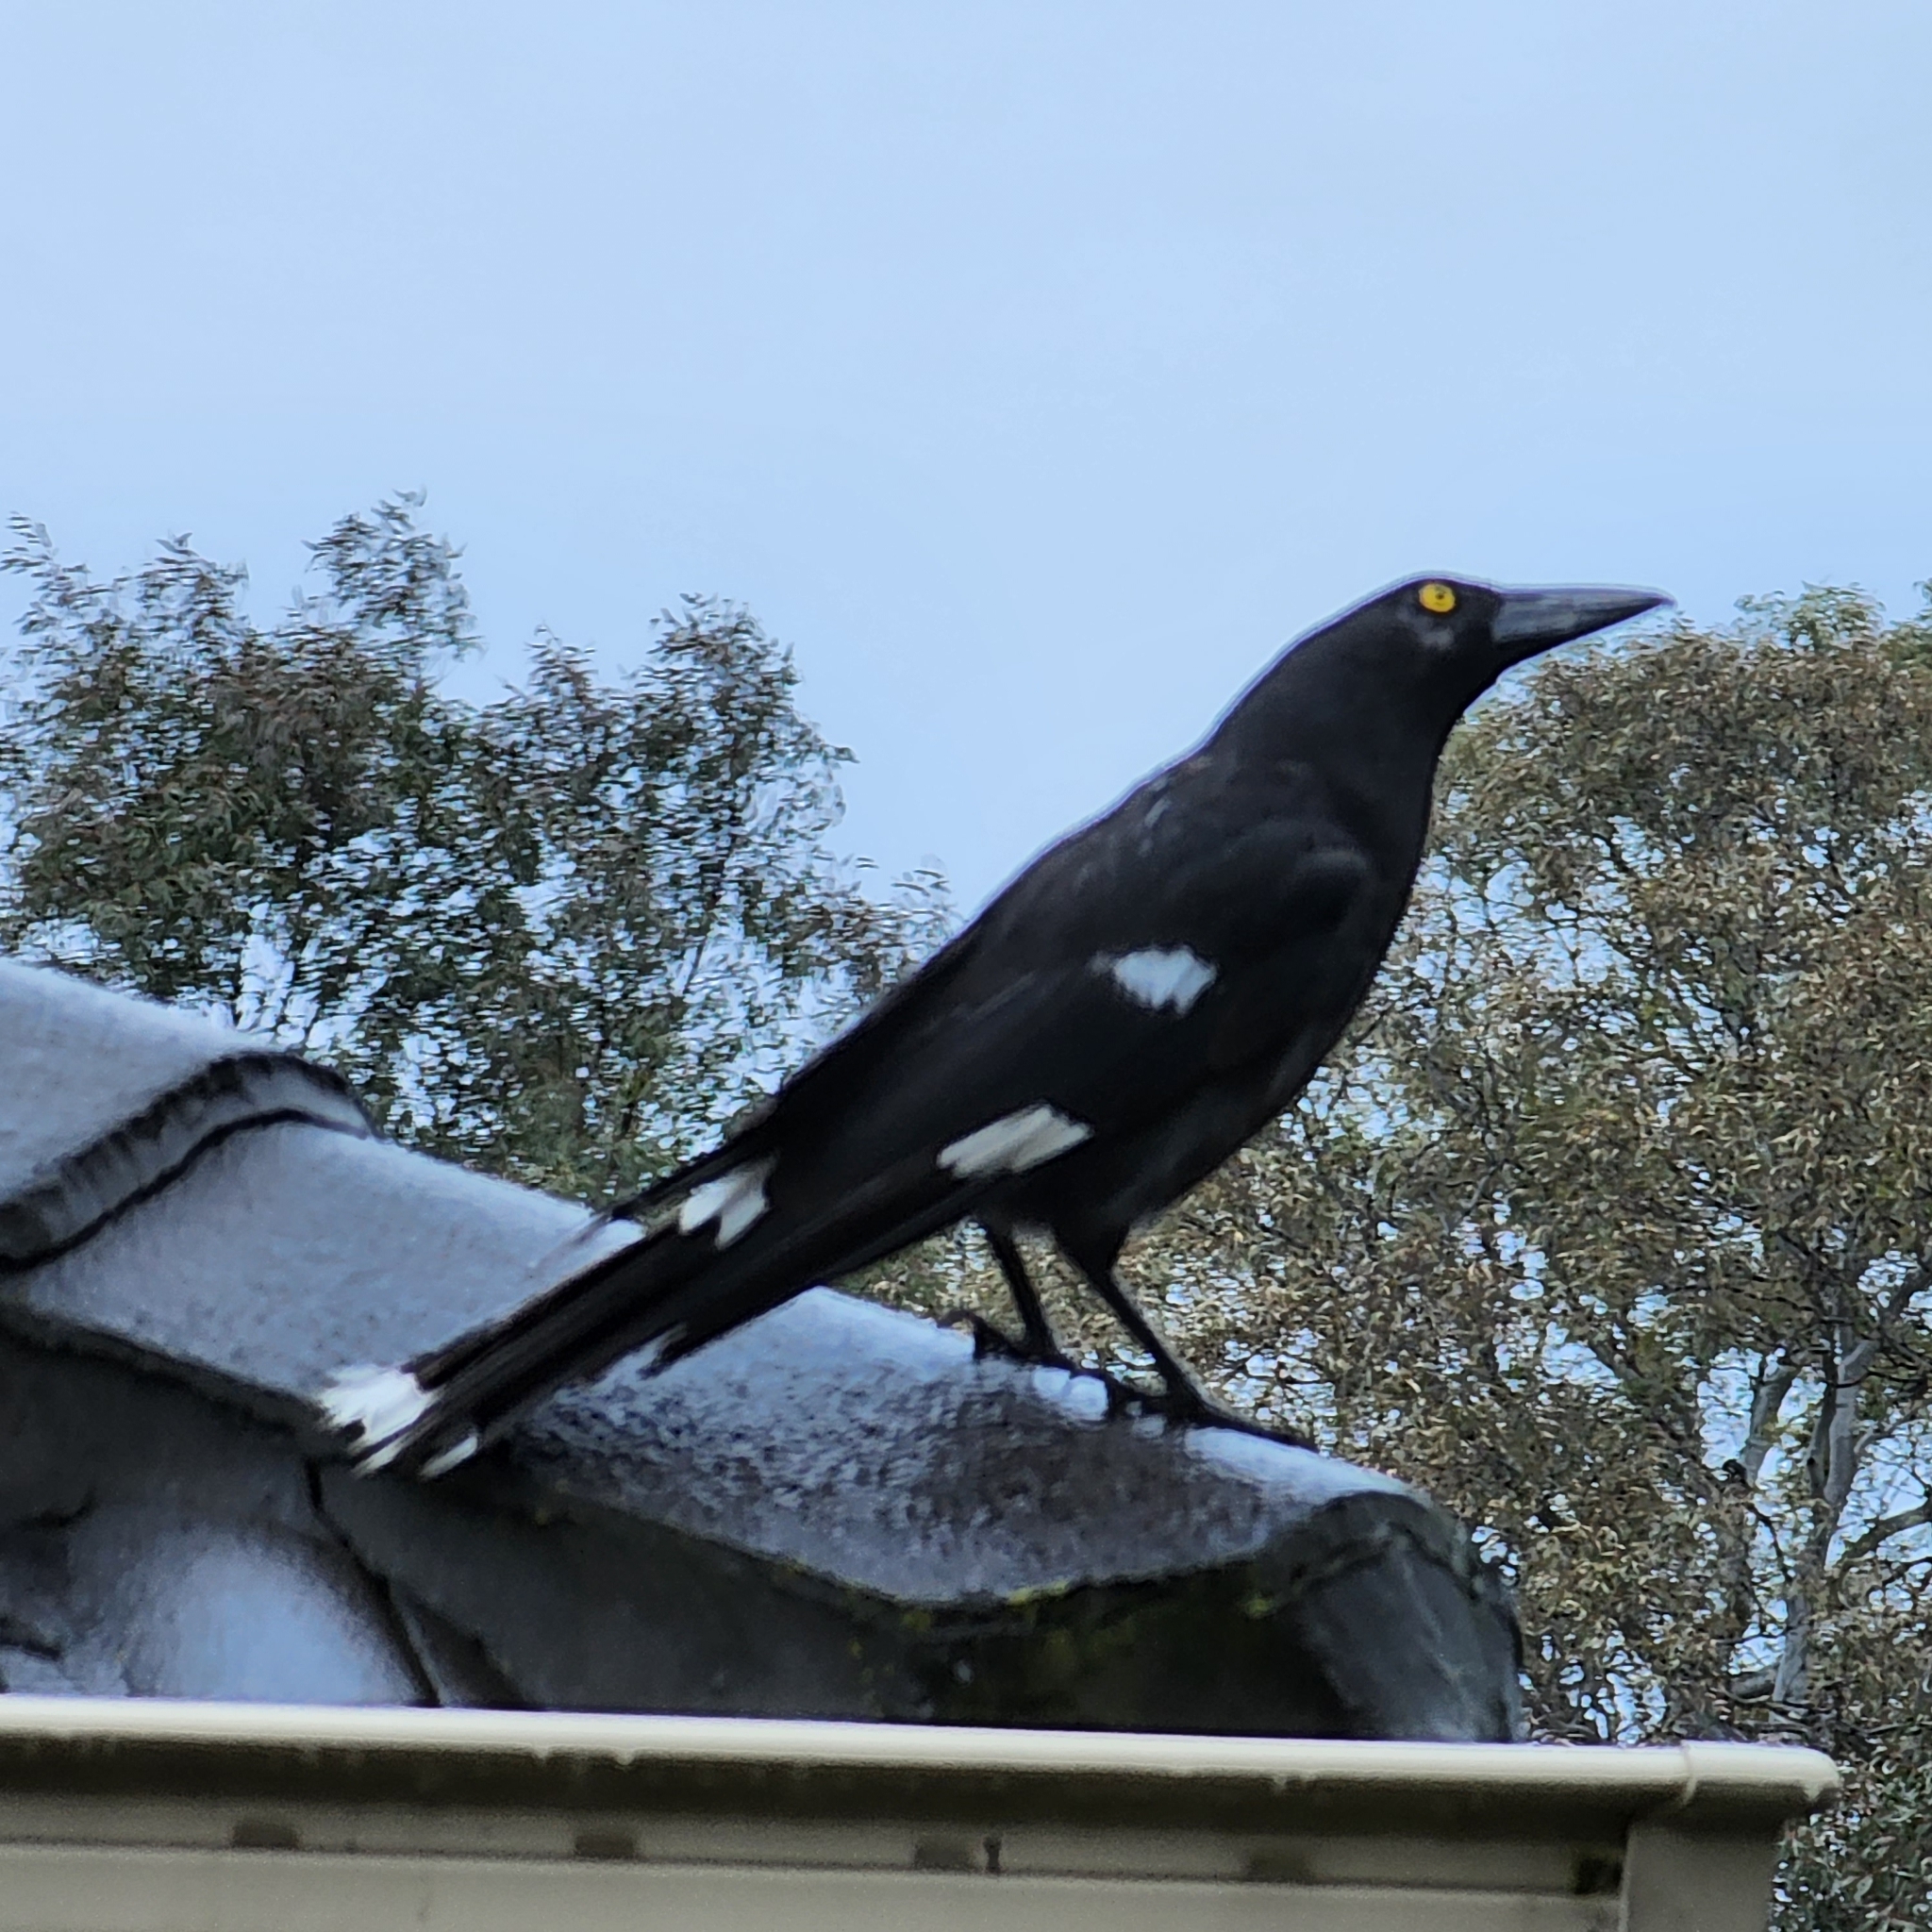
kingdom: Animalia
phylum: Chordata
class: Aves
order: Passeriformes
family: Cracticidae
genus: Strepera
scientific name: Strepera graculina
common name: Pied currawong
